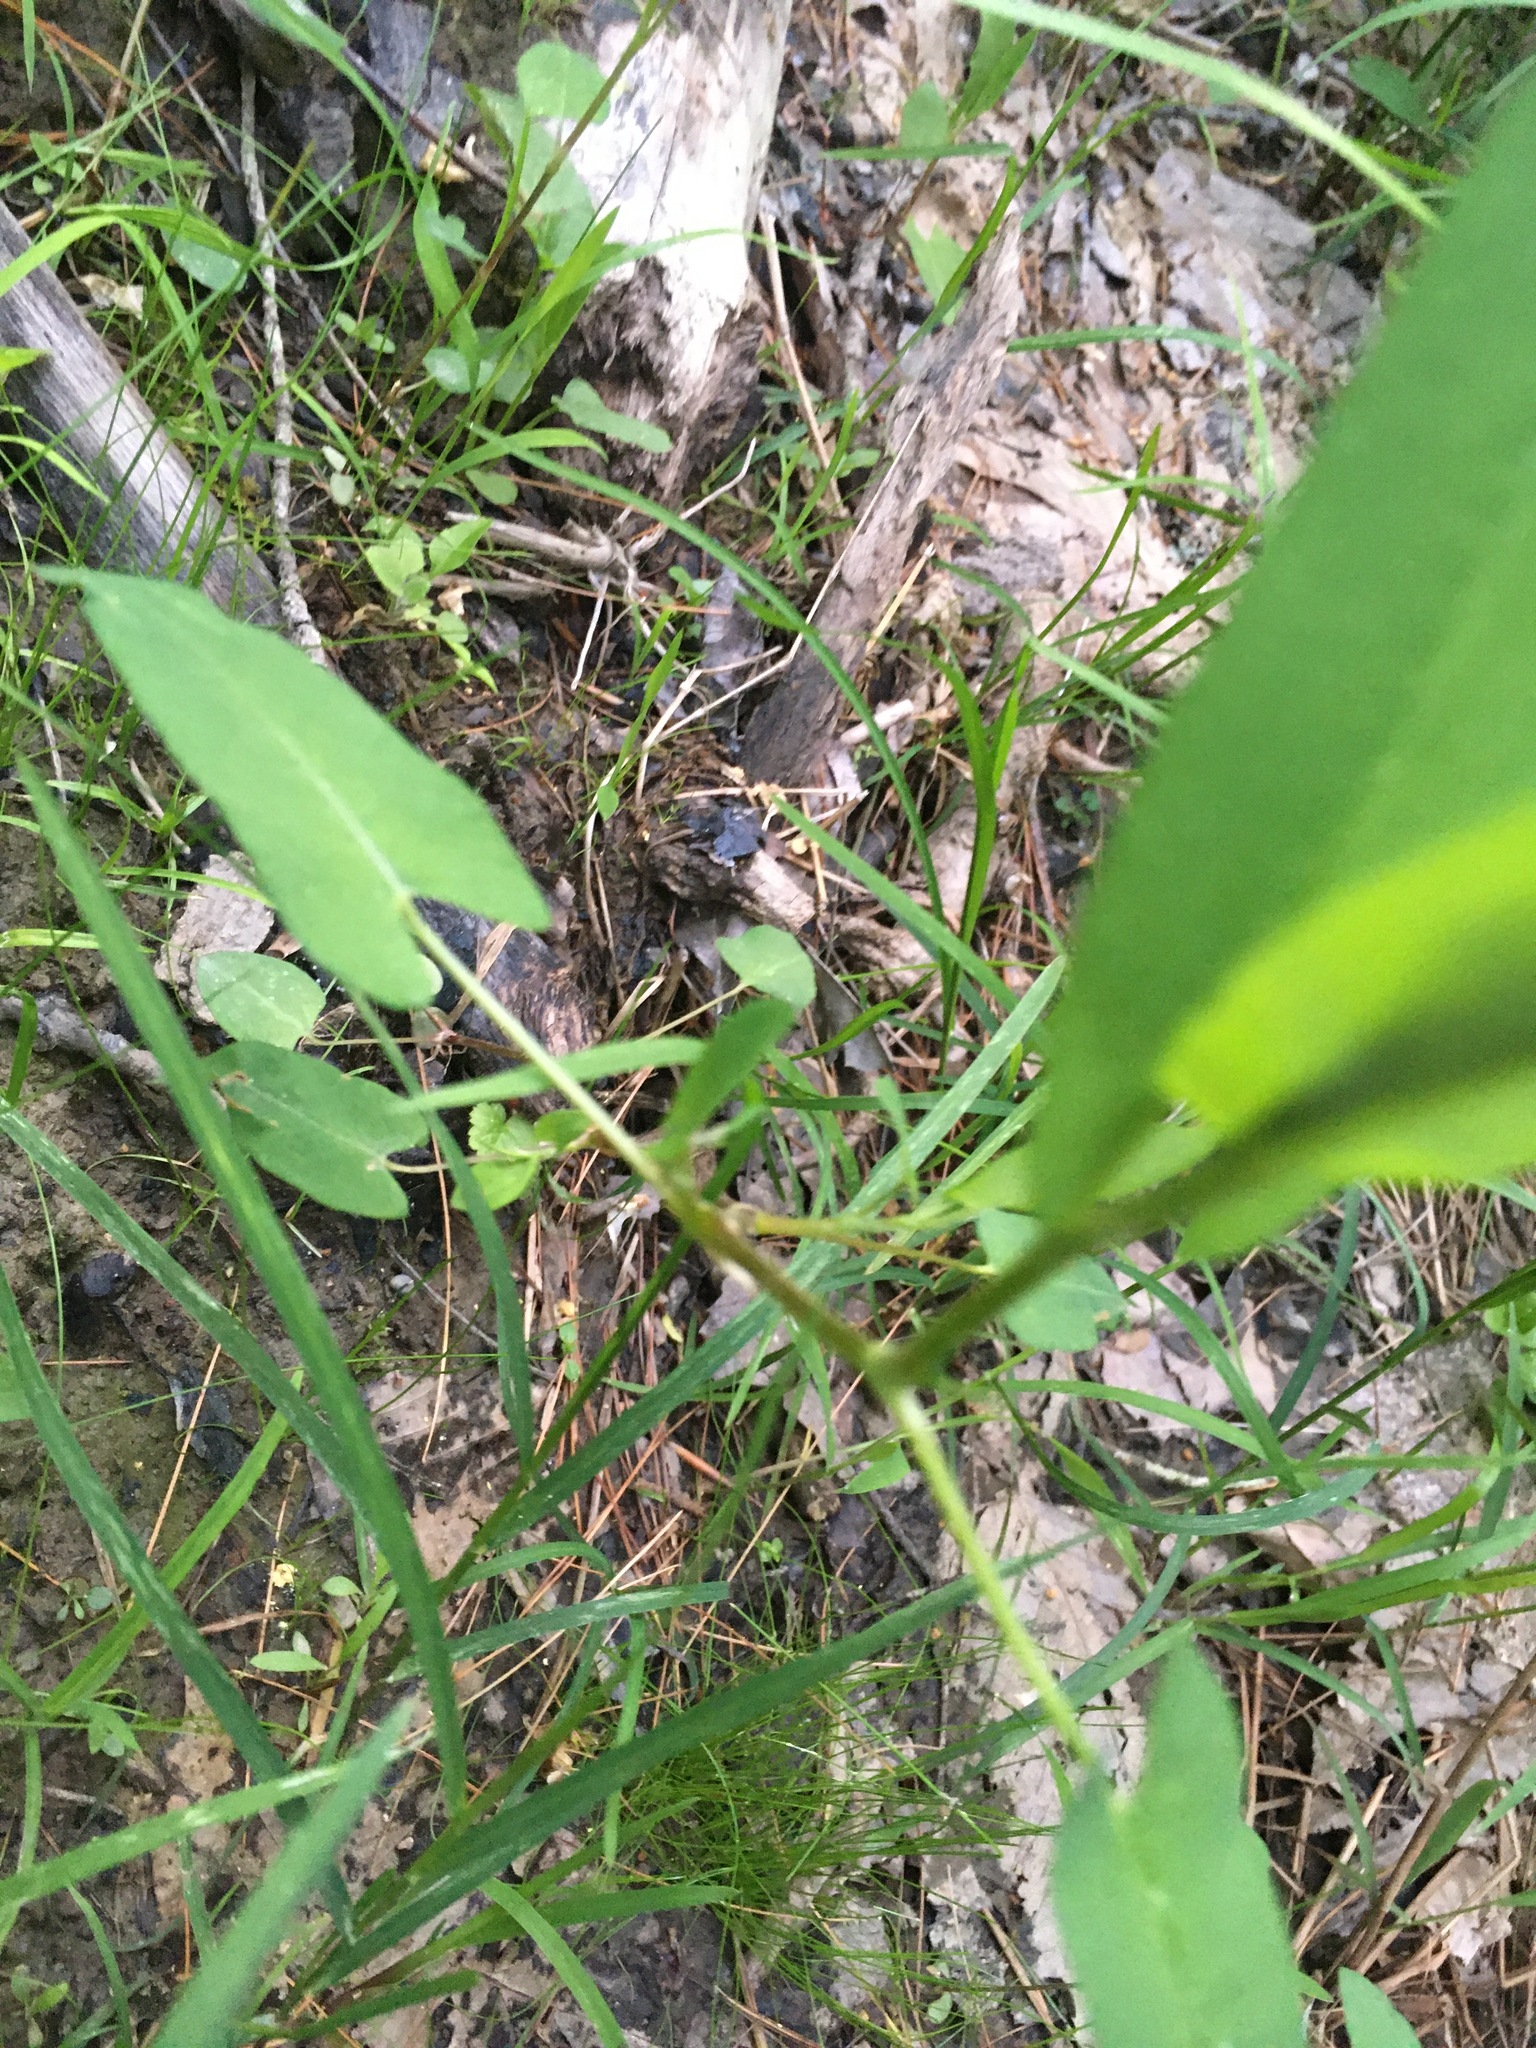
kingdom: Plantae
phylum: Tracheophyta
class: Magnoliopsida
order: Caryophyllales
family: Polygonaceae
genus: Persicaria
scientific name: Persicaria sagittata
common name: American tearthumb
